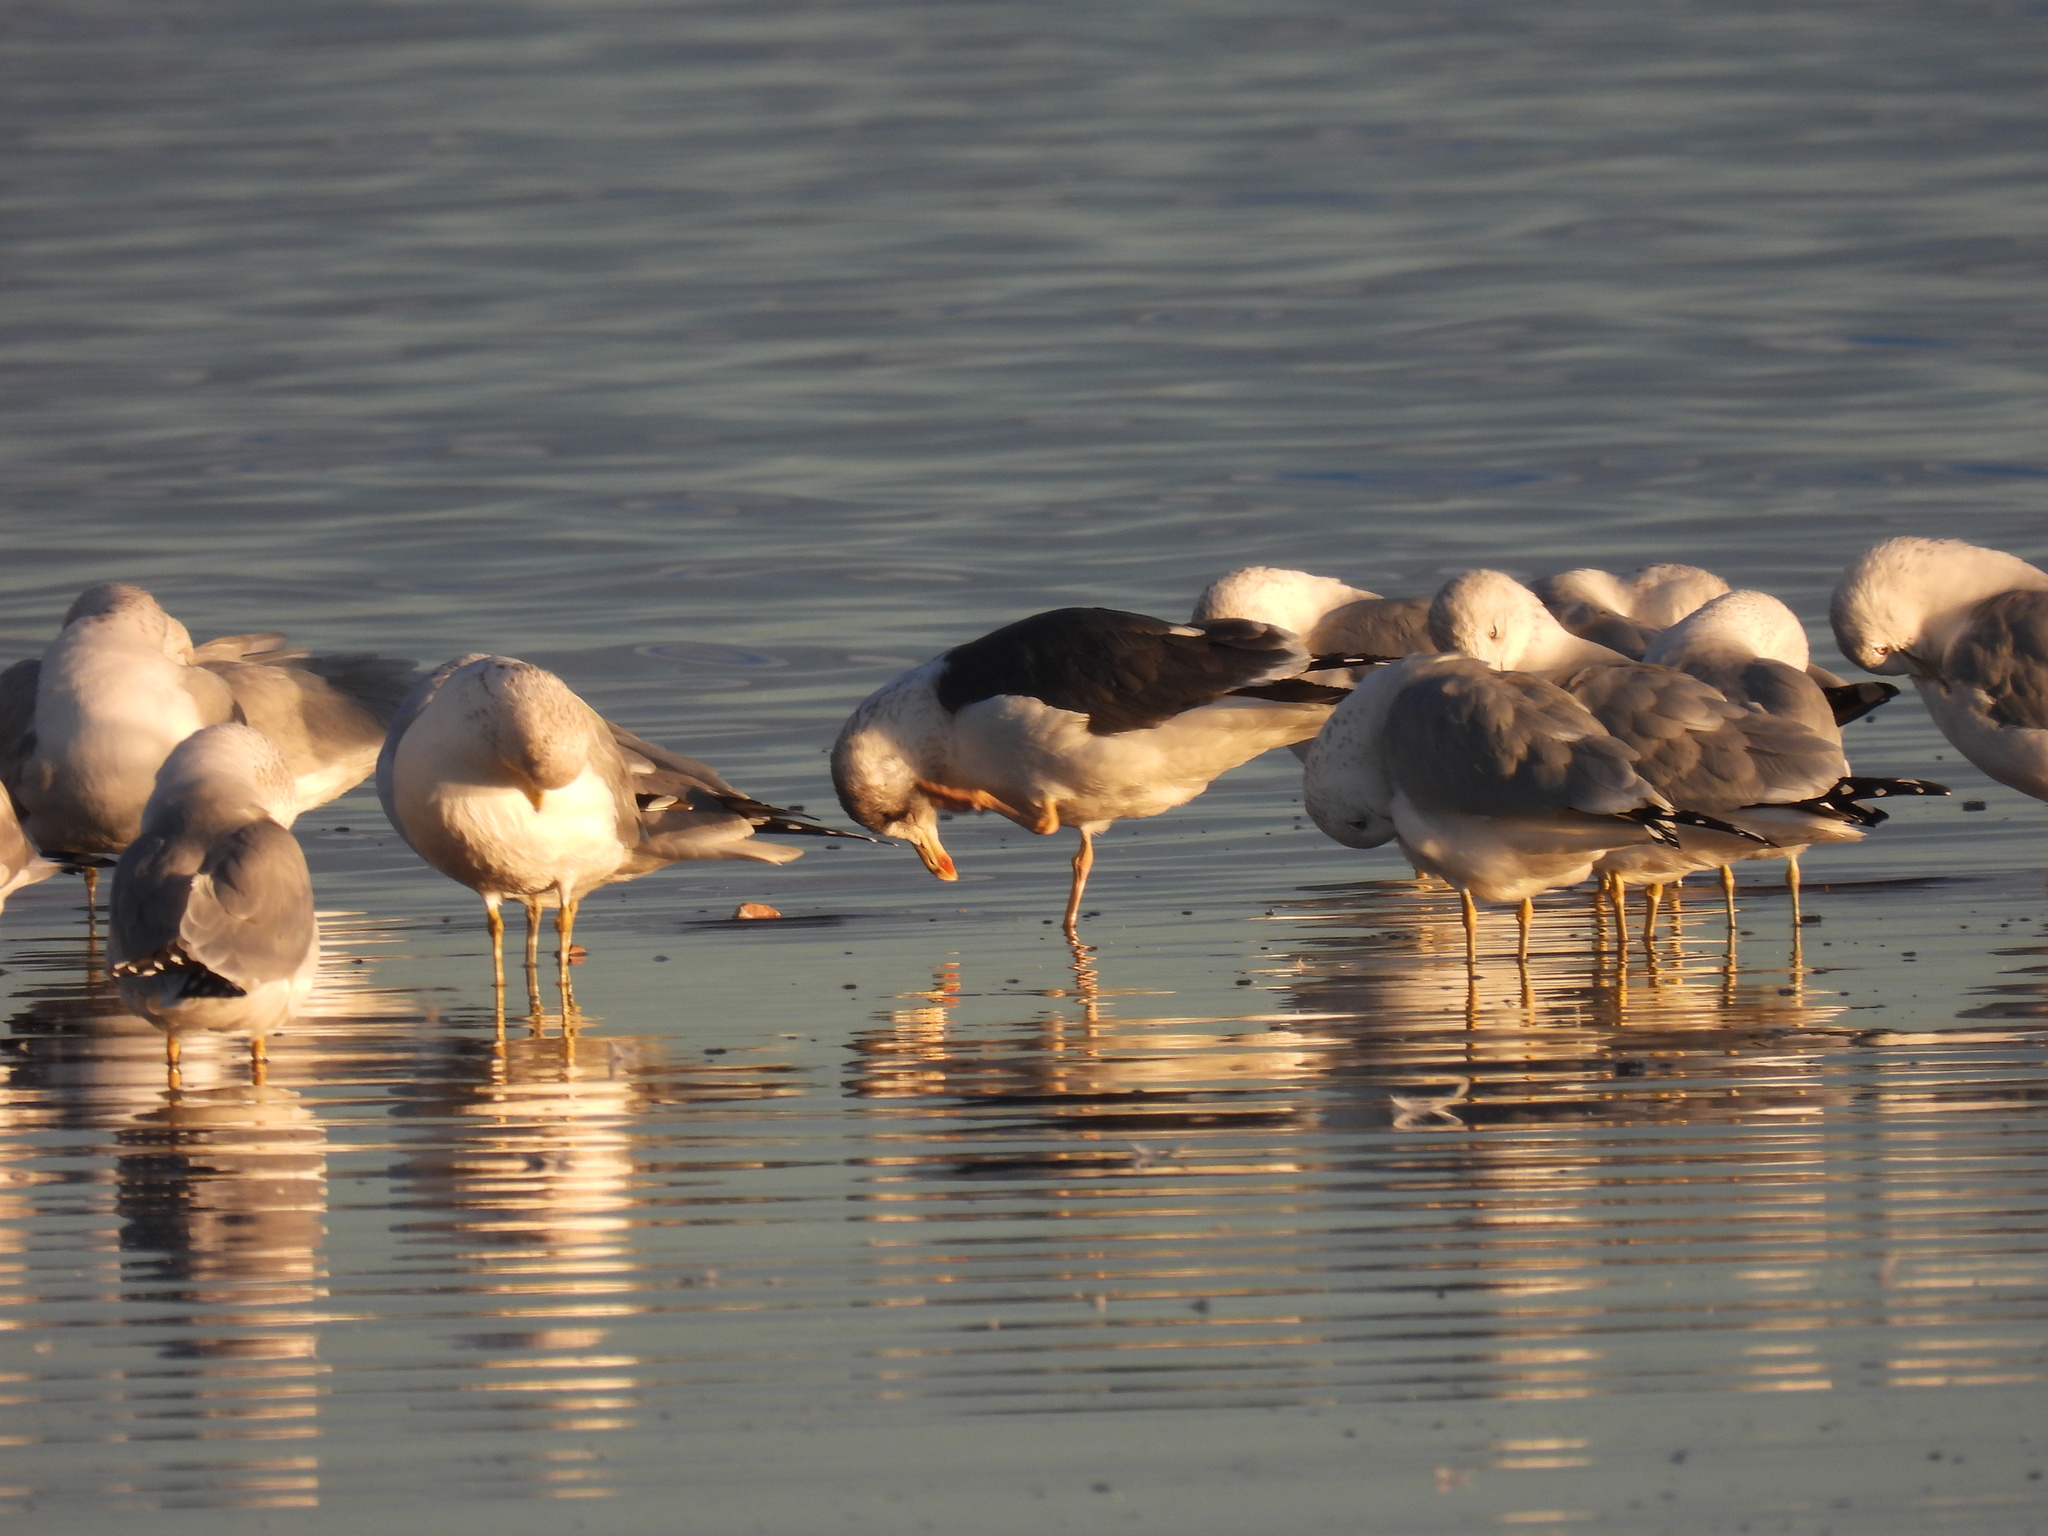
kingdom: Animalia
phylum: Chordata
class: Aves
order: Charadriiformes
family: Laridae
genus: Larus
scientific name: Larus fuscus
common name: Lesser black-backed gull
